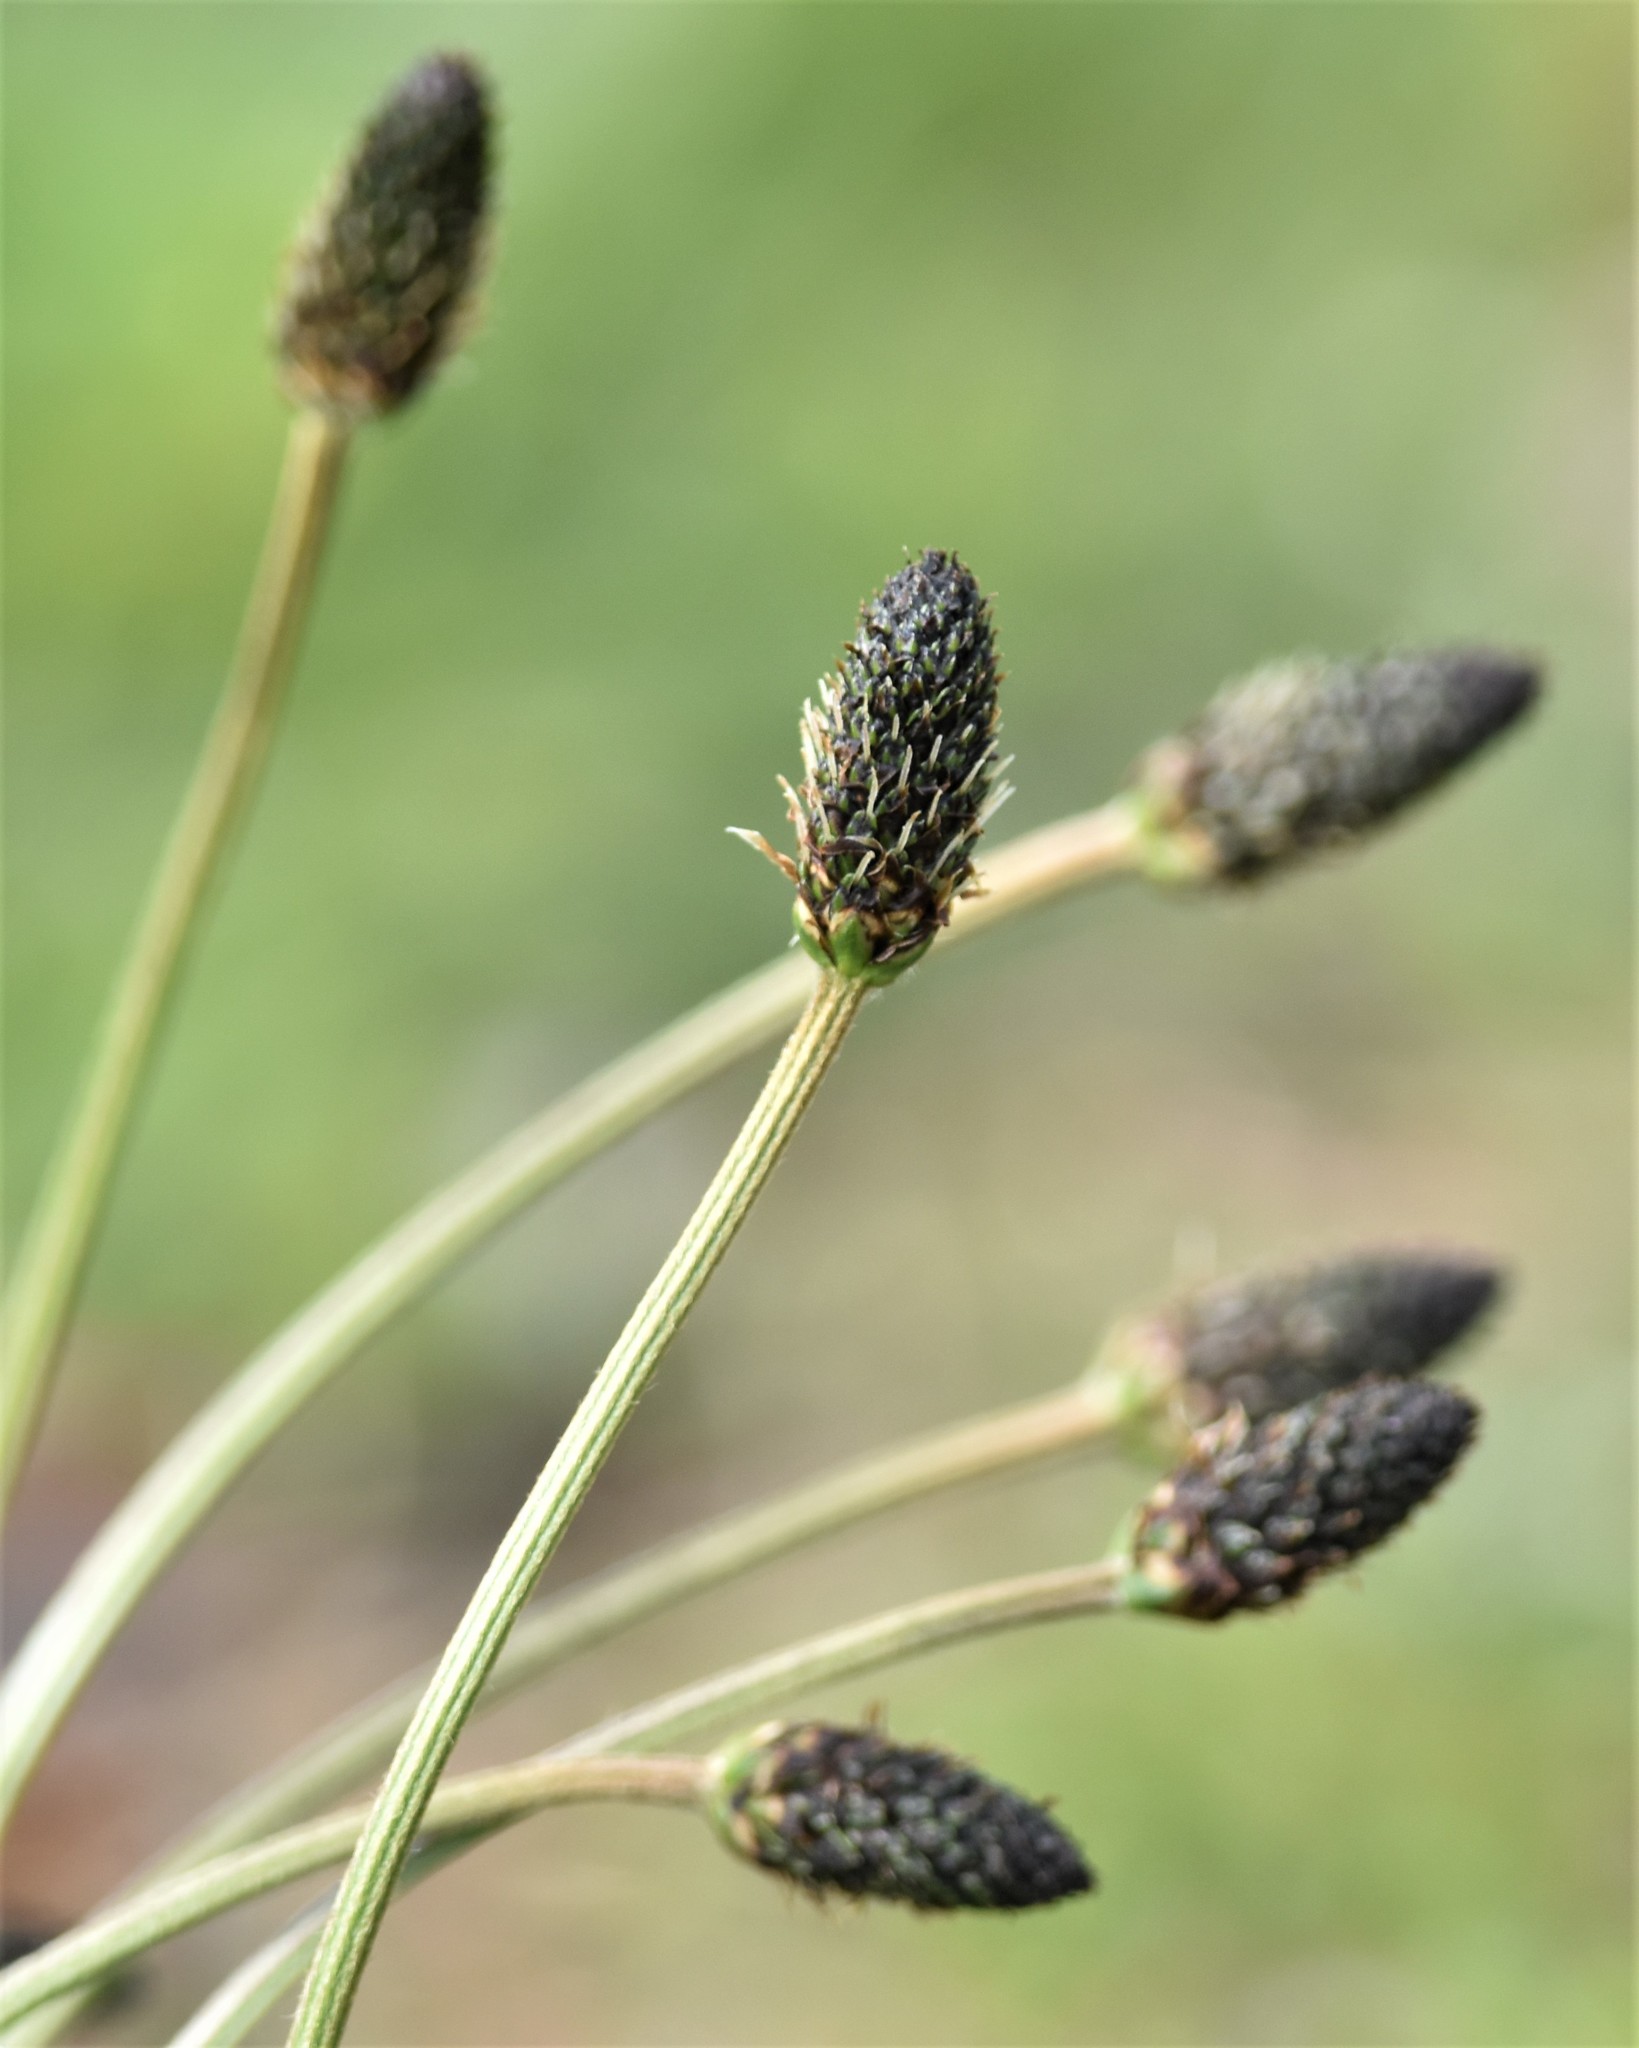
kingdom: Plantae
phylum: Tracheophyta
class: Magnoliopsida
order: Lamiales
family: Plantaginaceae
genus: Plantago
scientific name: Plantago lanceolata
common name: Ribwort plantain
